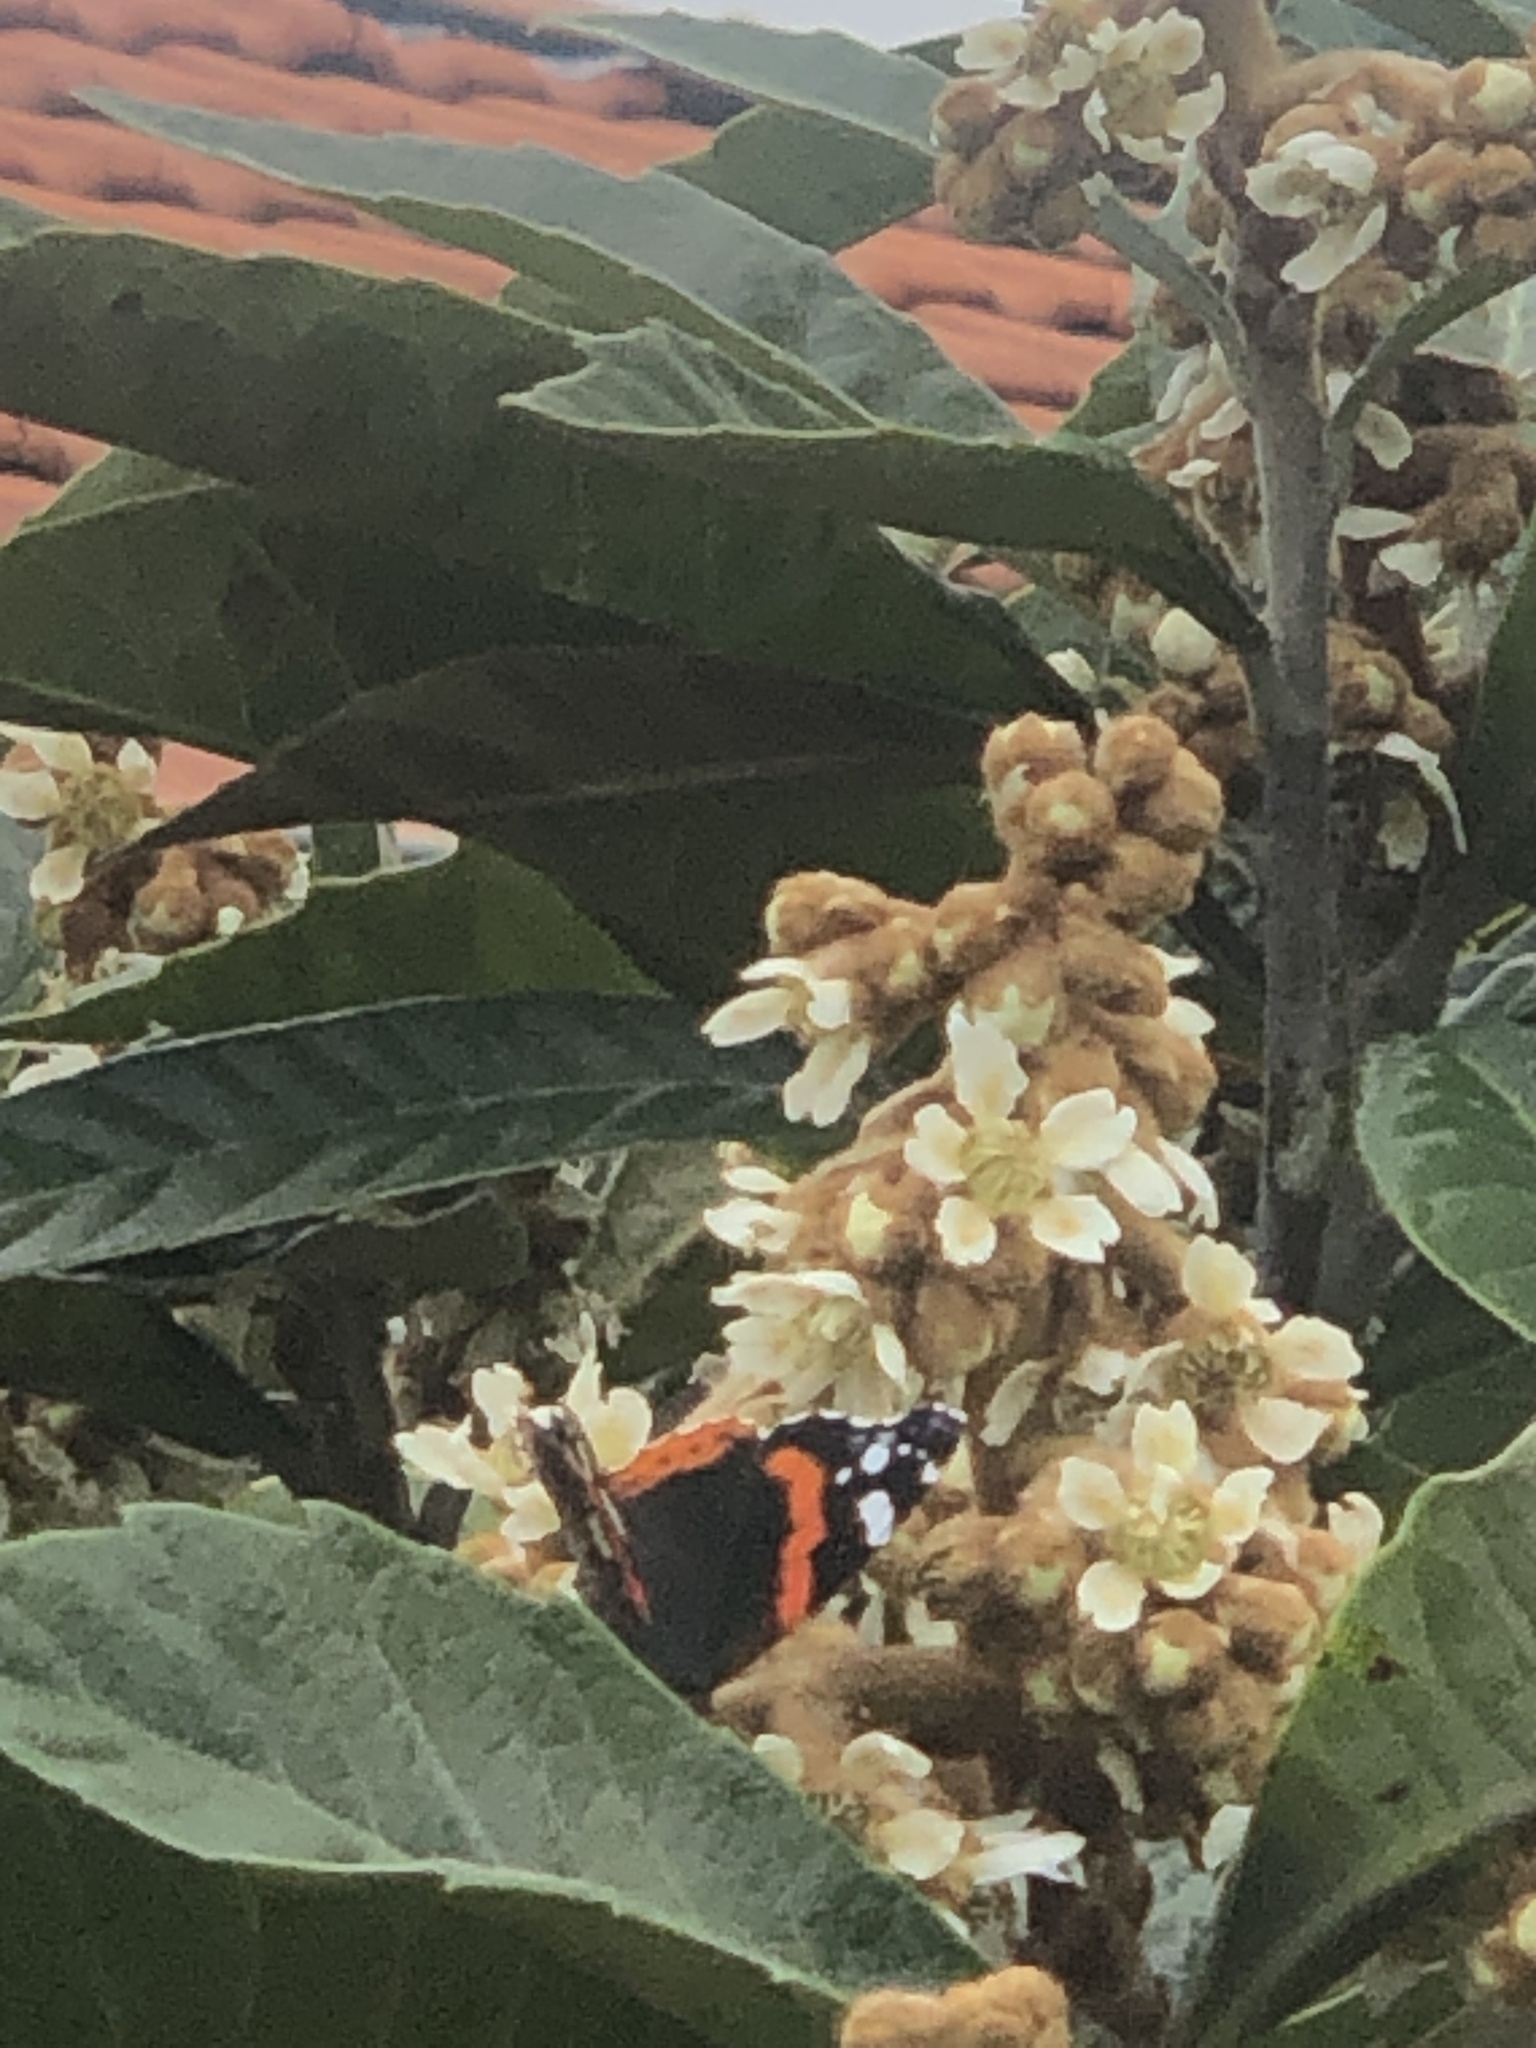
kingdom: Animalia
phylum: Arthropoda
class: Insecta
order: Lepidoptera
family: Nymphalidae
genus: Vanessa
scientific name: Vanessa atalanta
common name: Red admiral
